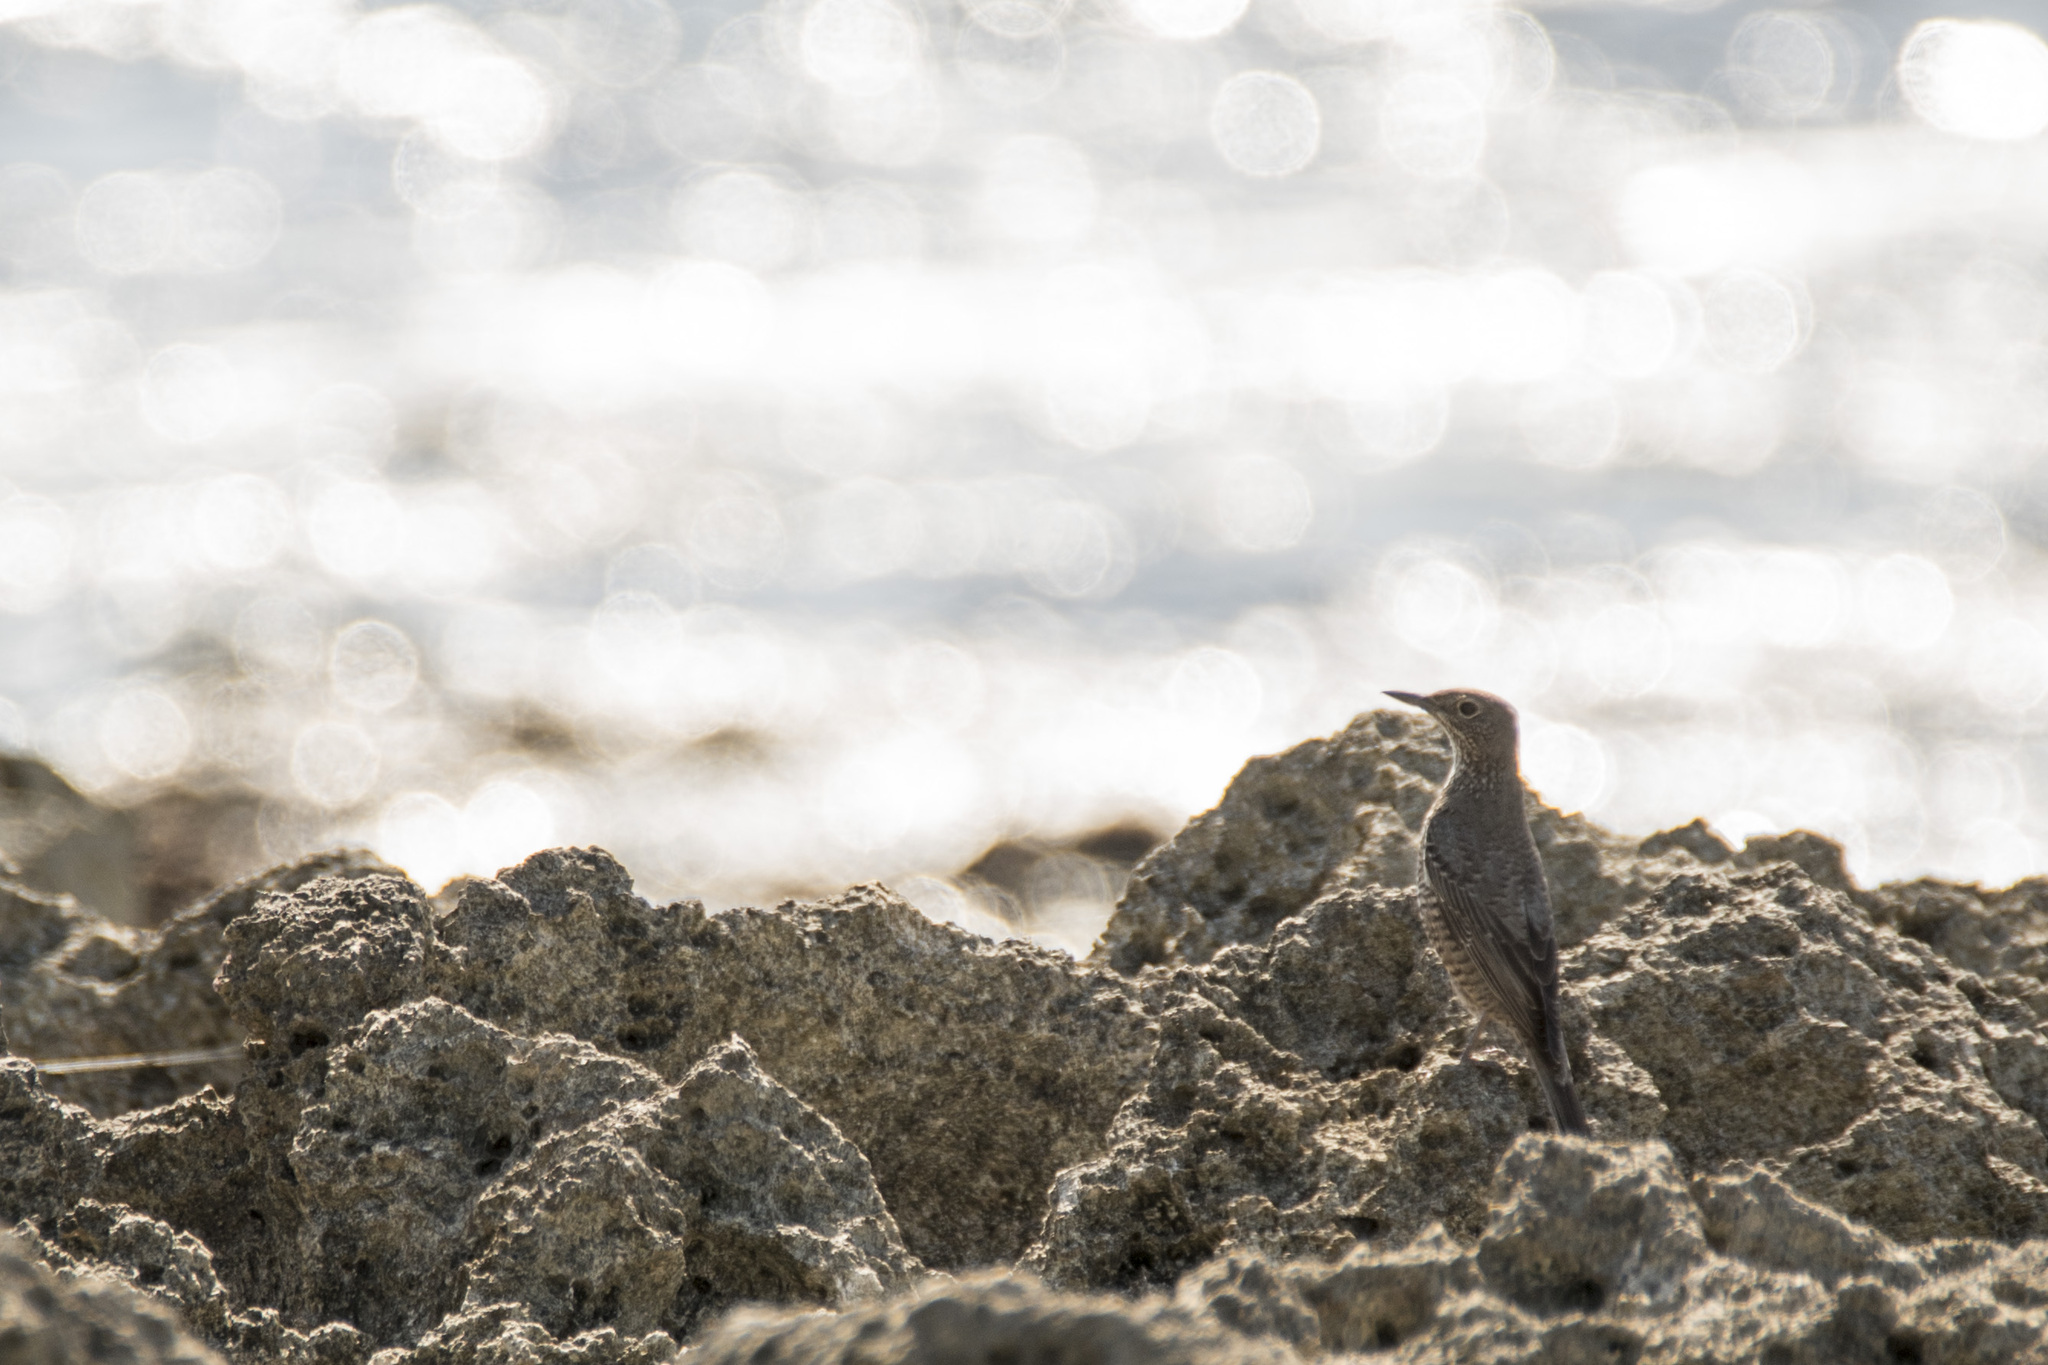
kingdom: Animalia
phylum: Chordata
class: Aves
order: Passeriformes
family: Muscicapidae
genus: Monticola
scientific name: Monticola solitarius
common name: Blue rock thrush
